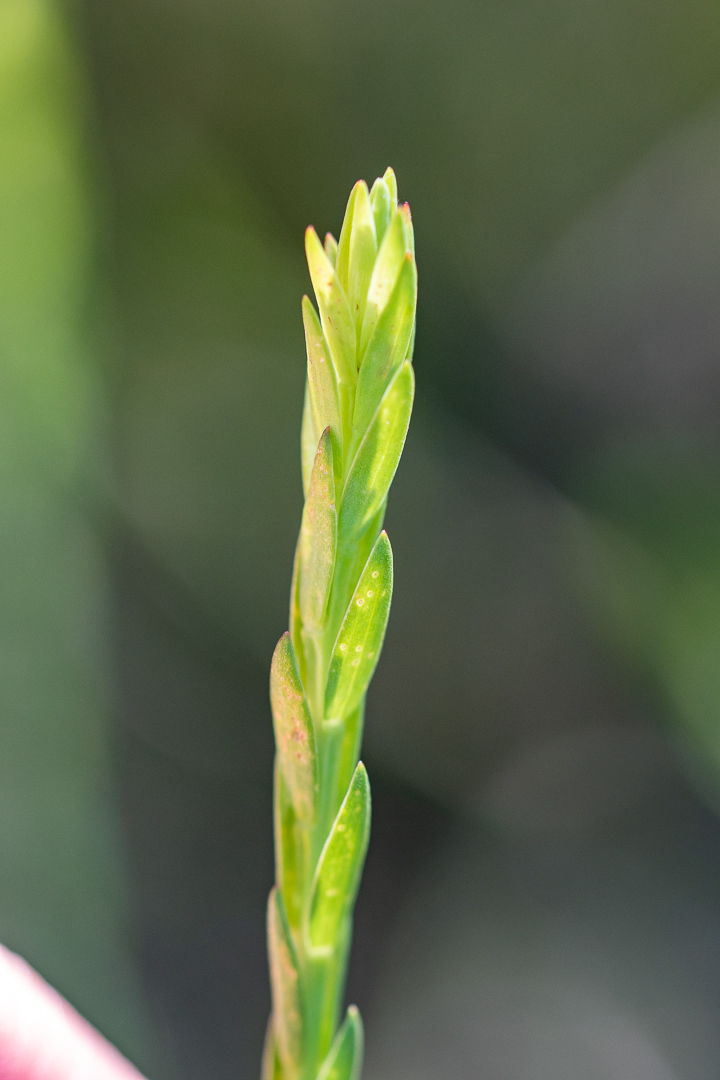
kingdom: Plantae
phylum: Tracheophyta
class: Magnoliopsida
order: Malvales
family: Thymelaeaceae
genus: Gnidia
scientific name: Gnidia oppositifolia
